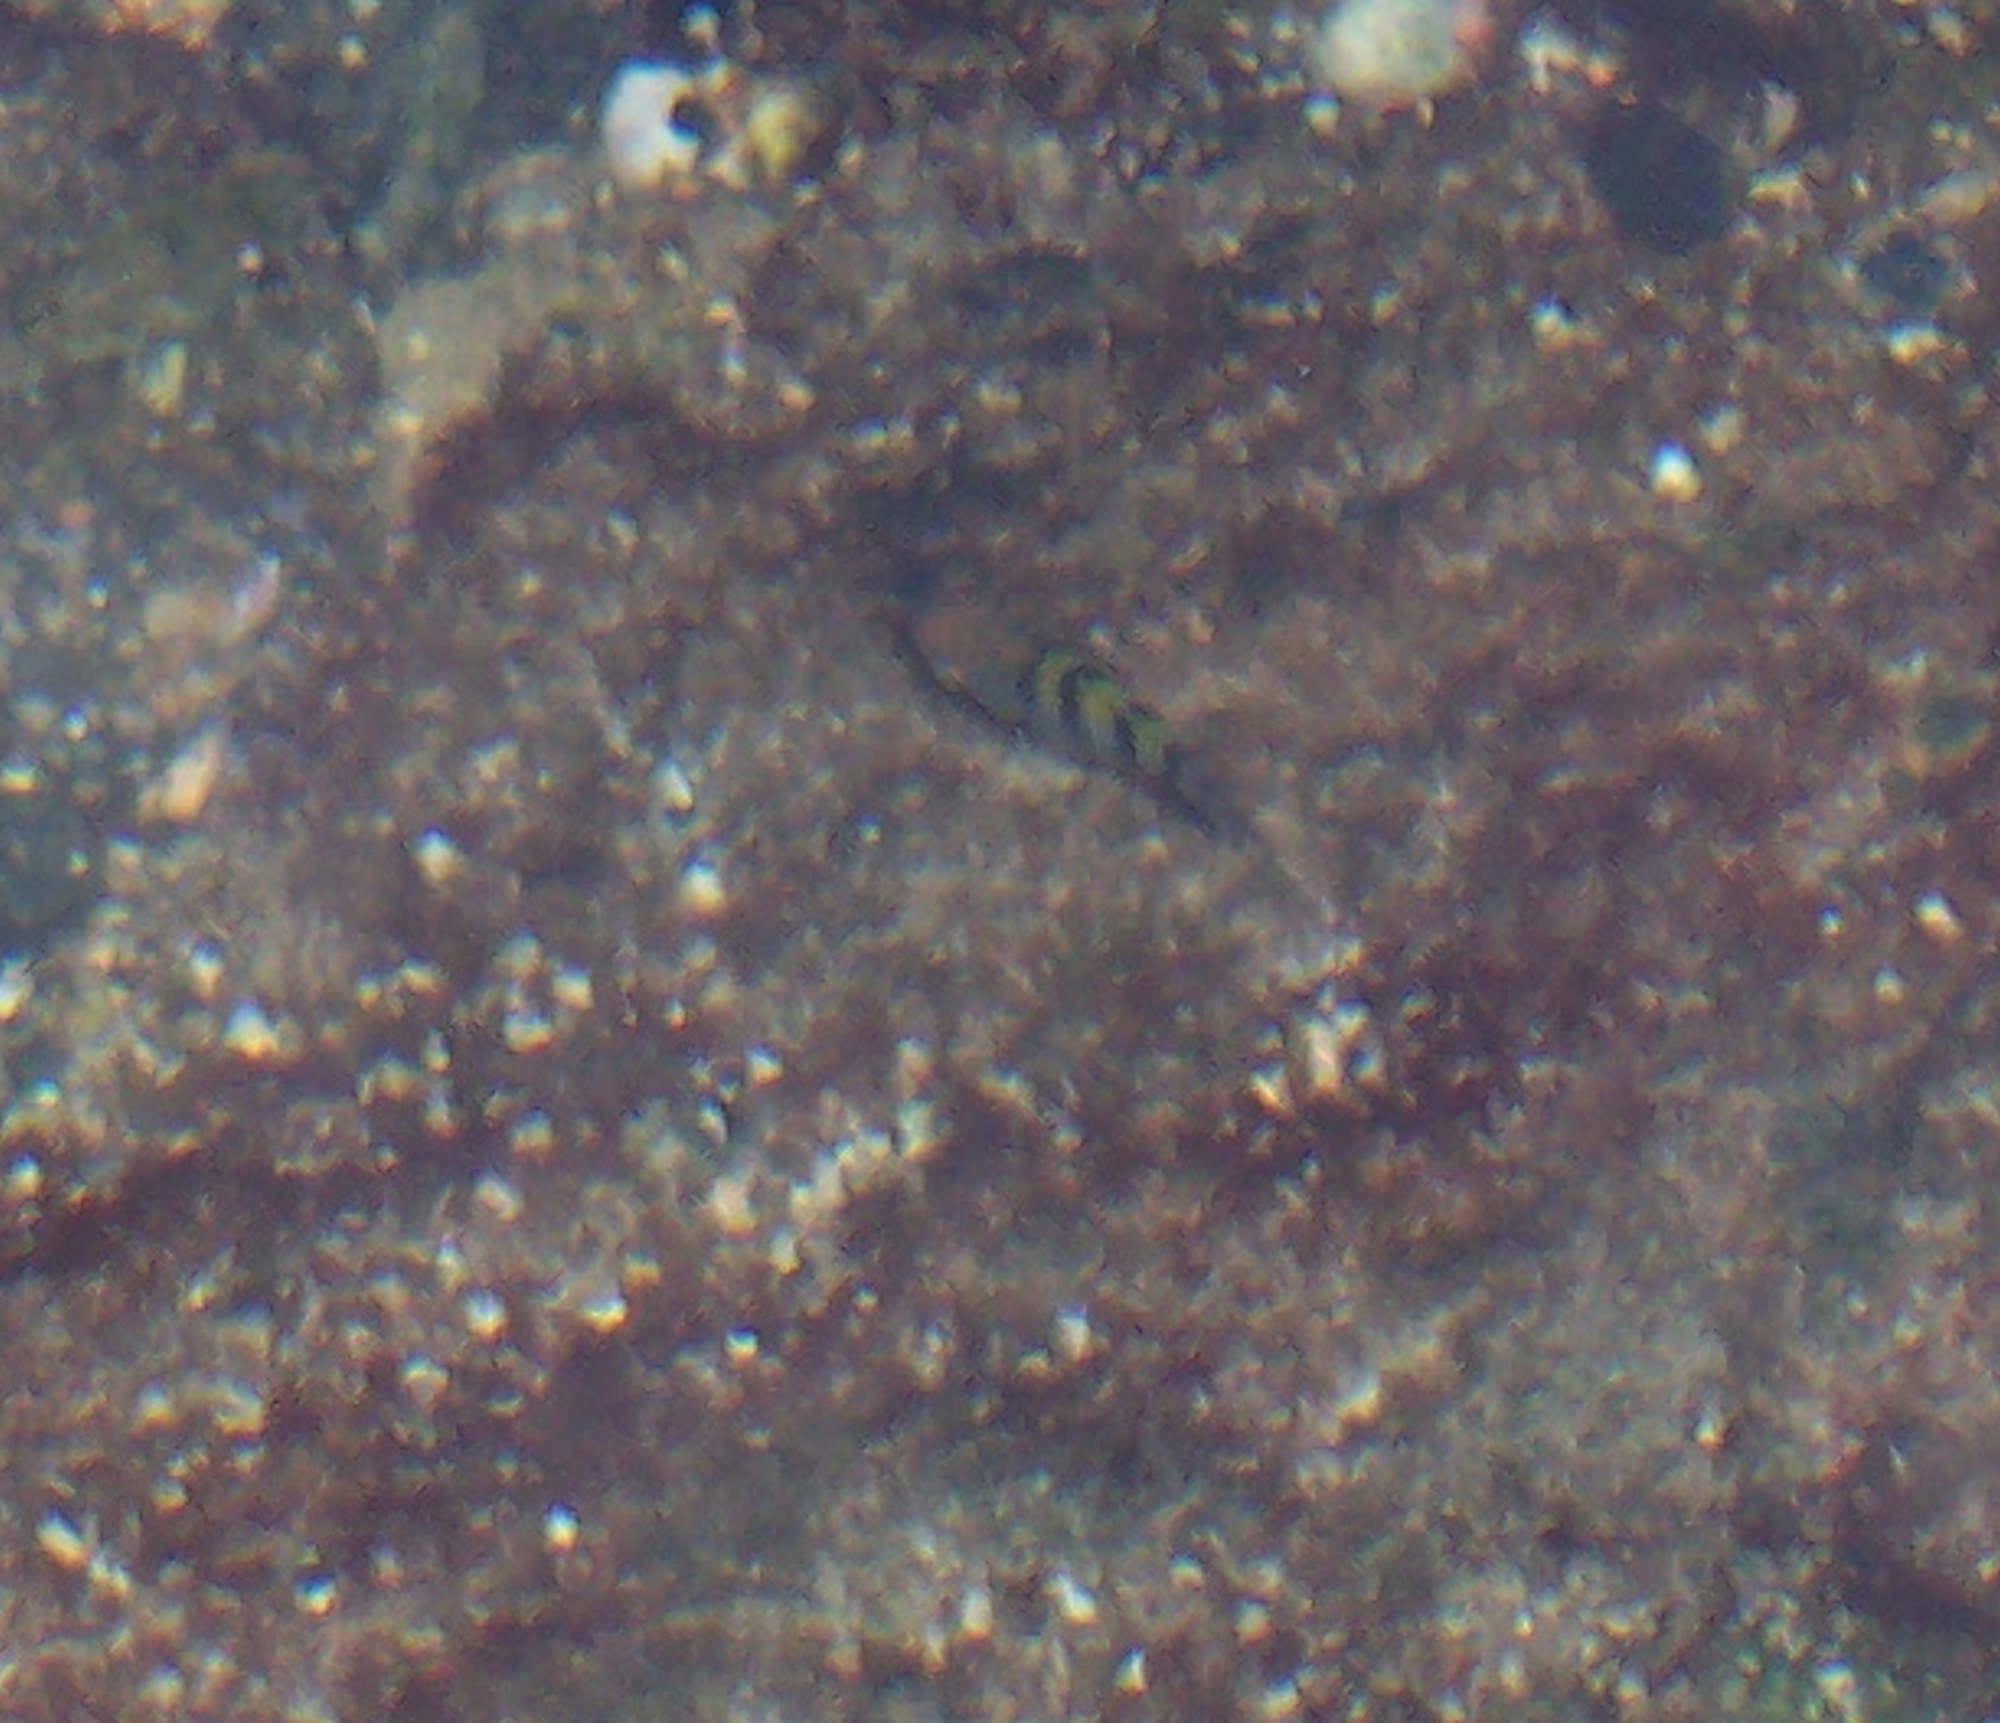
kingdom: Animalia
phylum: Chordata
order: Perciformes
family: Pomacentridae
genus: Abudefduf
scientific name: Abudefduf troschelii
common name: Panamic sergeant major
